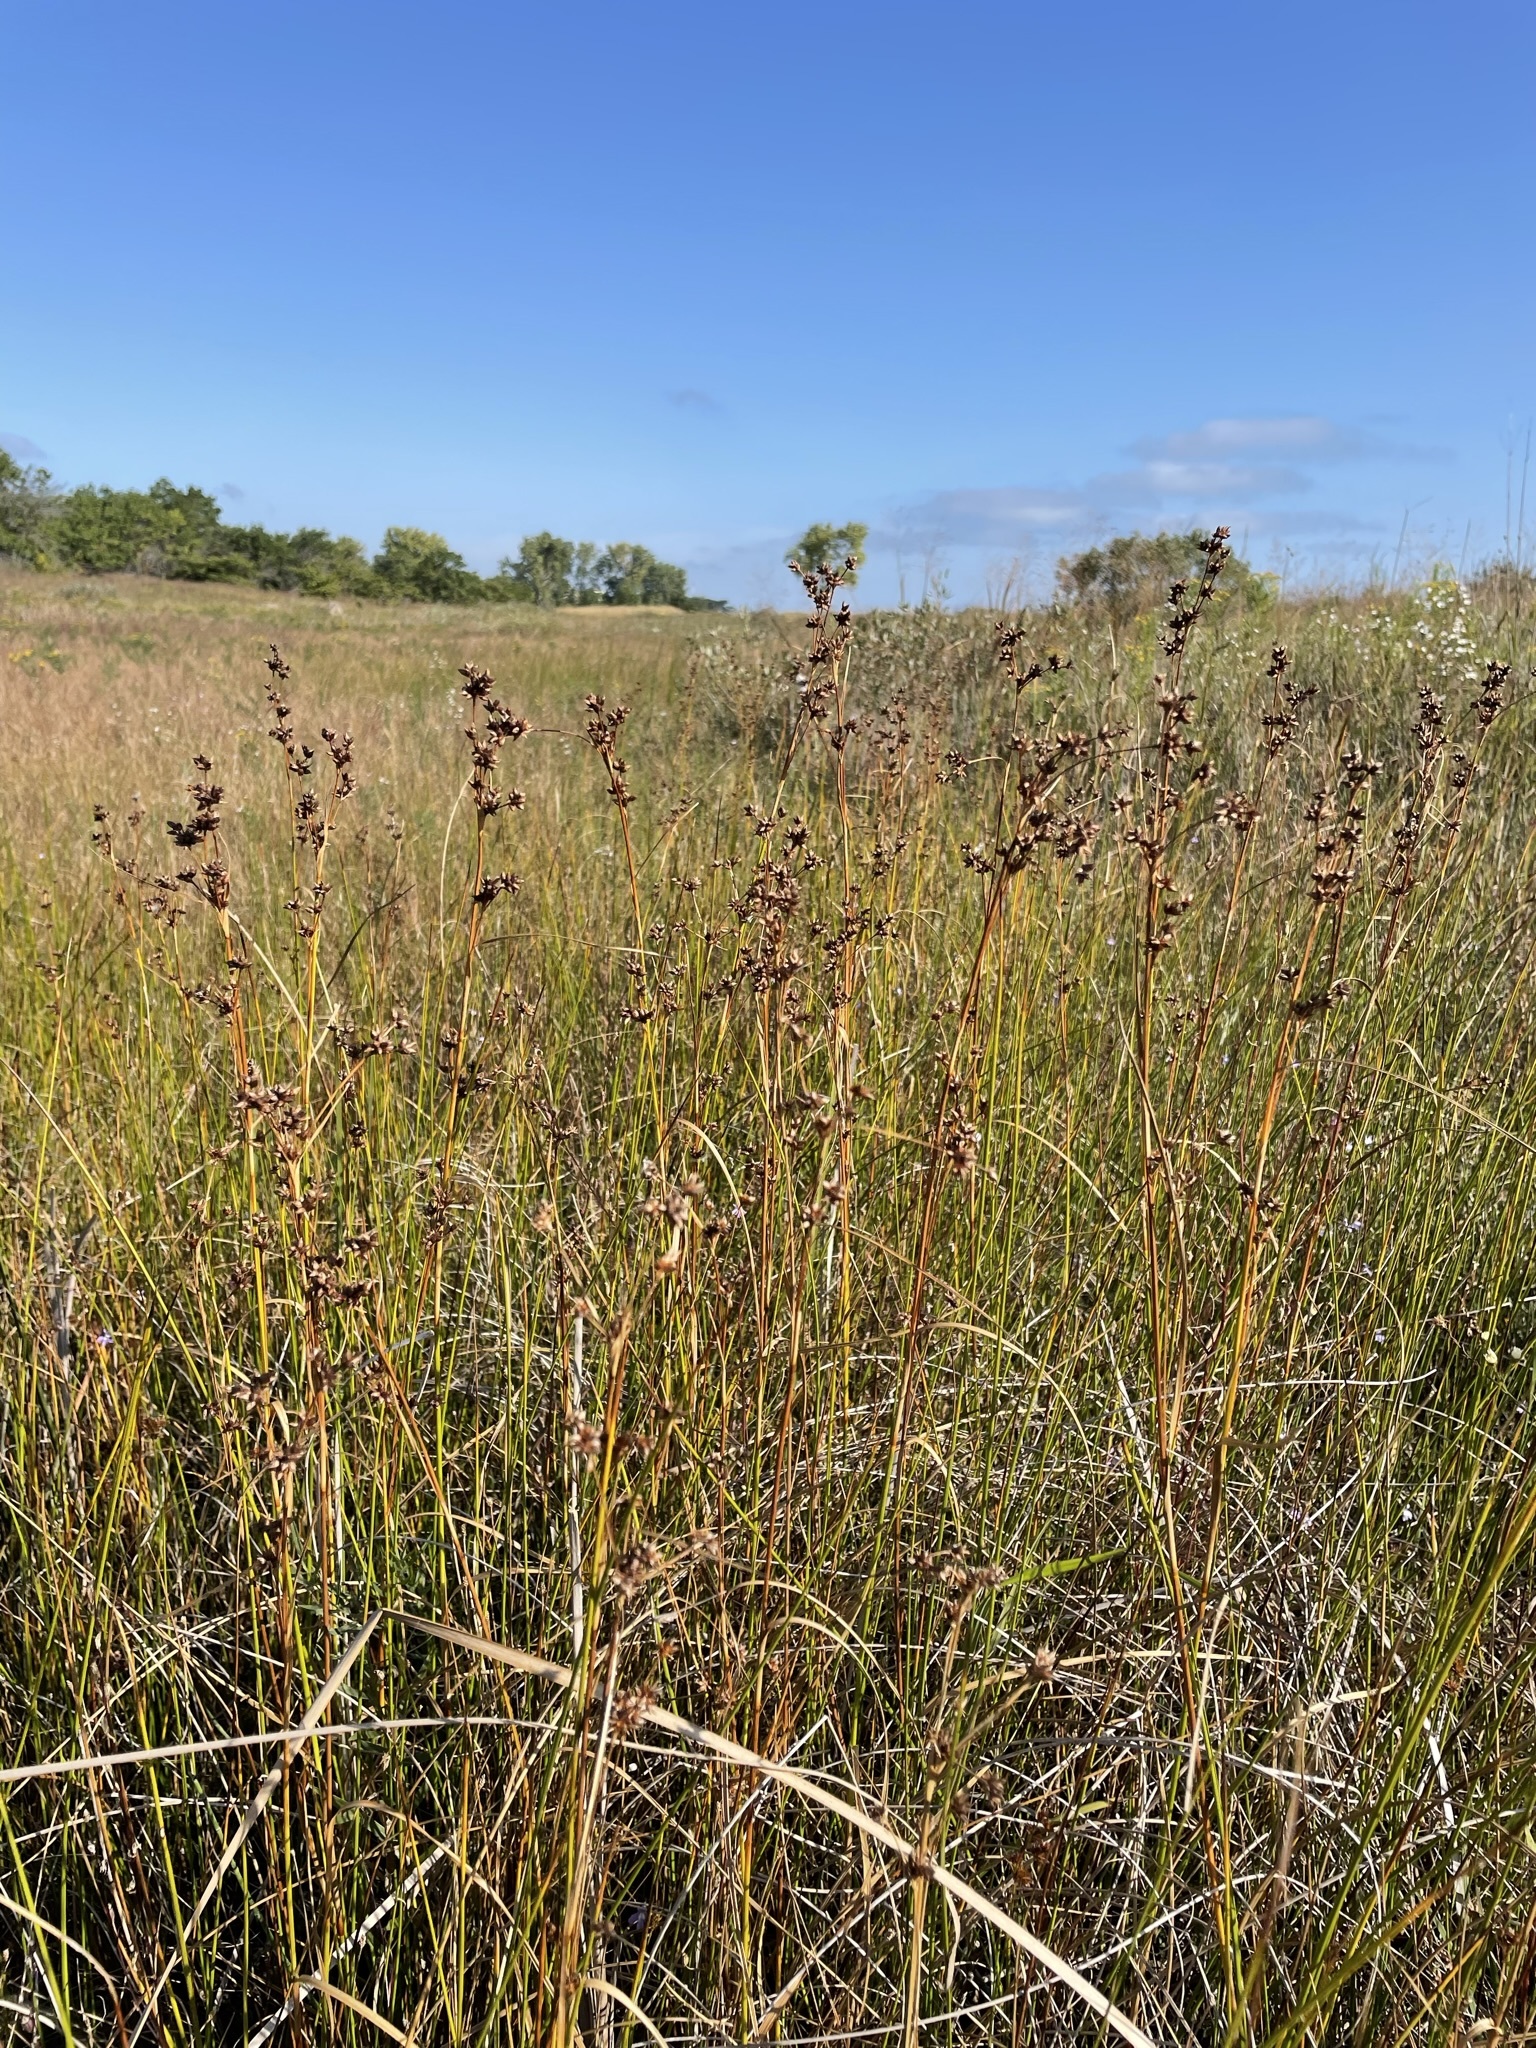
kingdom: Plantae
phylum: Tracheophyta
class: Liliopsida
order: Poales
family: Cyperaceae
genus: Cladium
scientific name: Cladium mariscoides
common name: Smooth sawgrass
